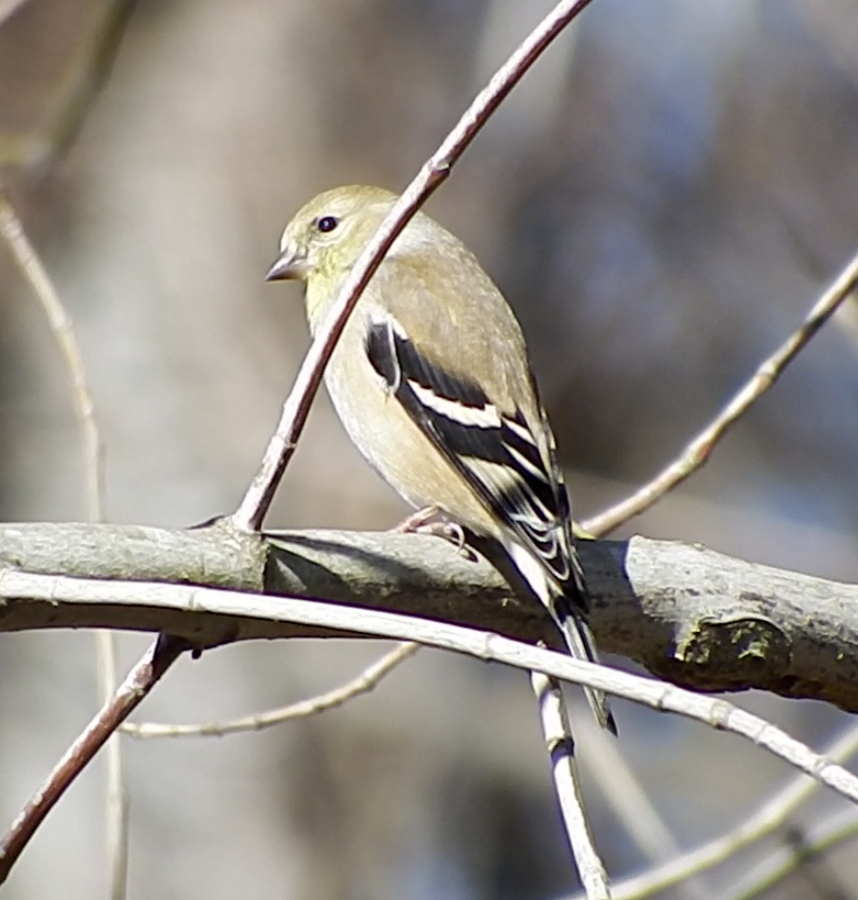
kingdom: Animalia
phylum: Chordata
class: Aves
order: Passeriformes
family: Fringillidae
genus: Spinus
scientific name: Spinus tristis
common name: American goldfinch
